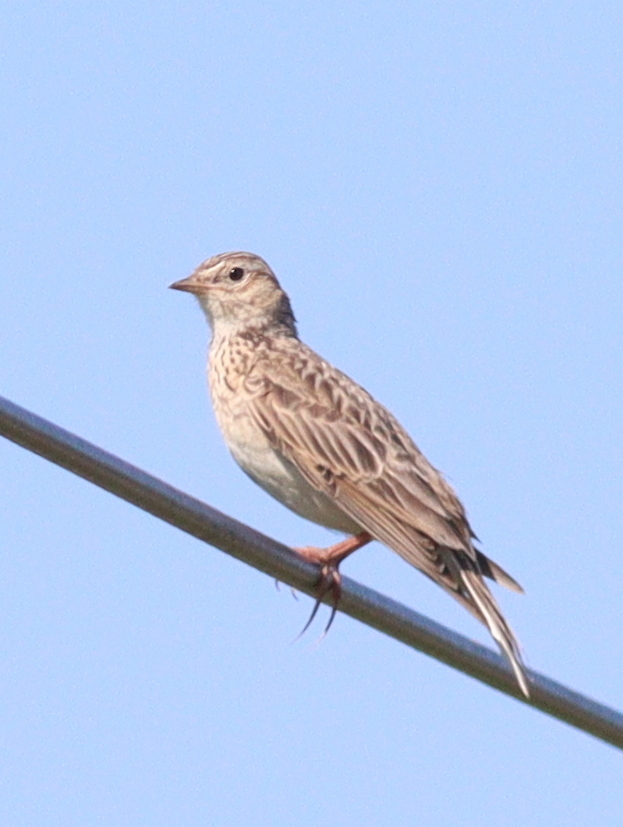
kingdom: Animalia
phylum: Chordata
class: Aves
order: Passeriformes
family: Alaudidae
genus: Alauda
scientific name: Alauda arvensis
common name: Eurasian skylark
